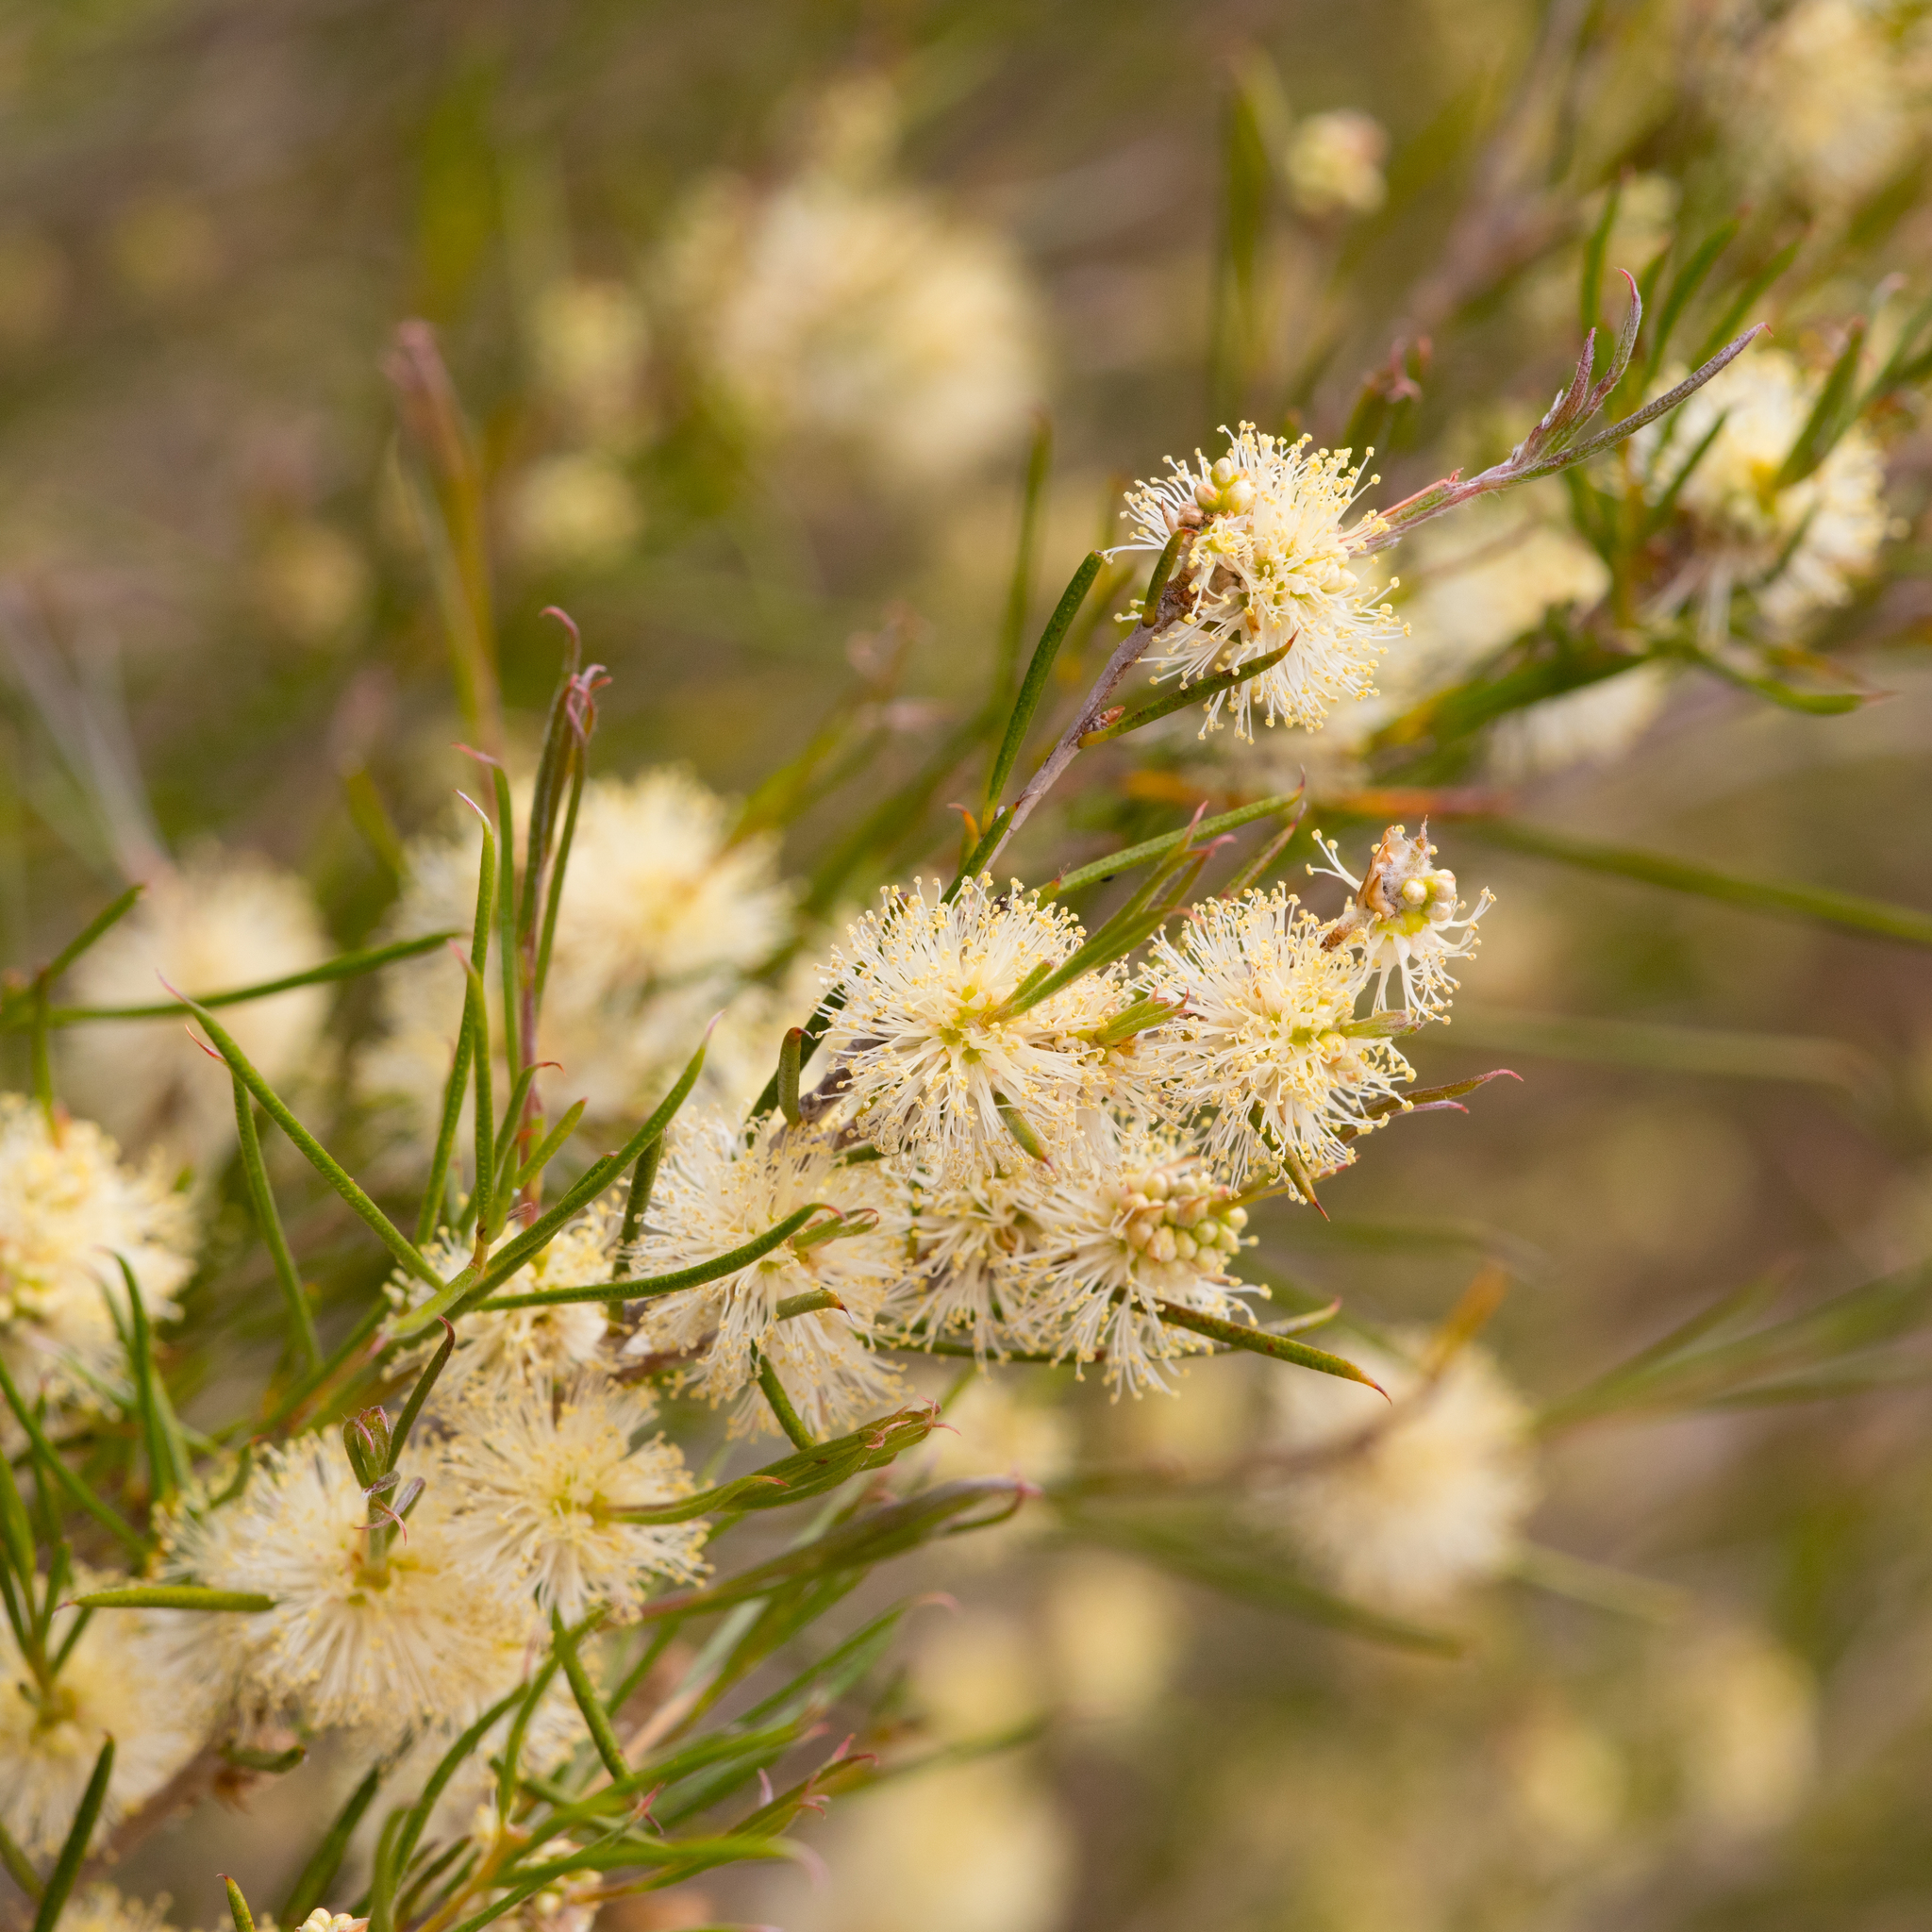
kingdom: Plantae
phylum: Tracheophyta
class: Magnoliopsida
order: Myrtales
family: Myrtaceae
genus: Melaleuca
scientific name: Melaleuca uncinata
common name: Broom honey myrtle
